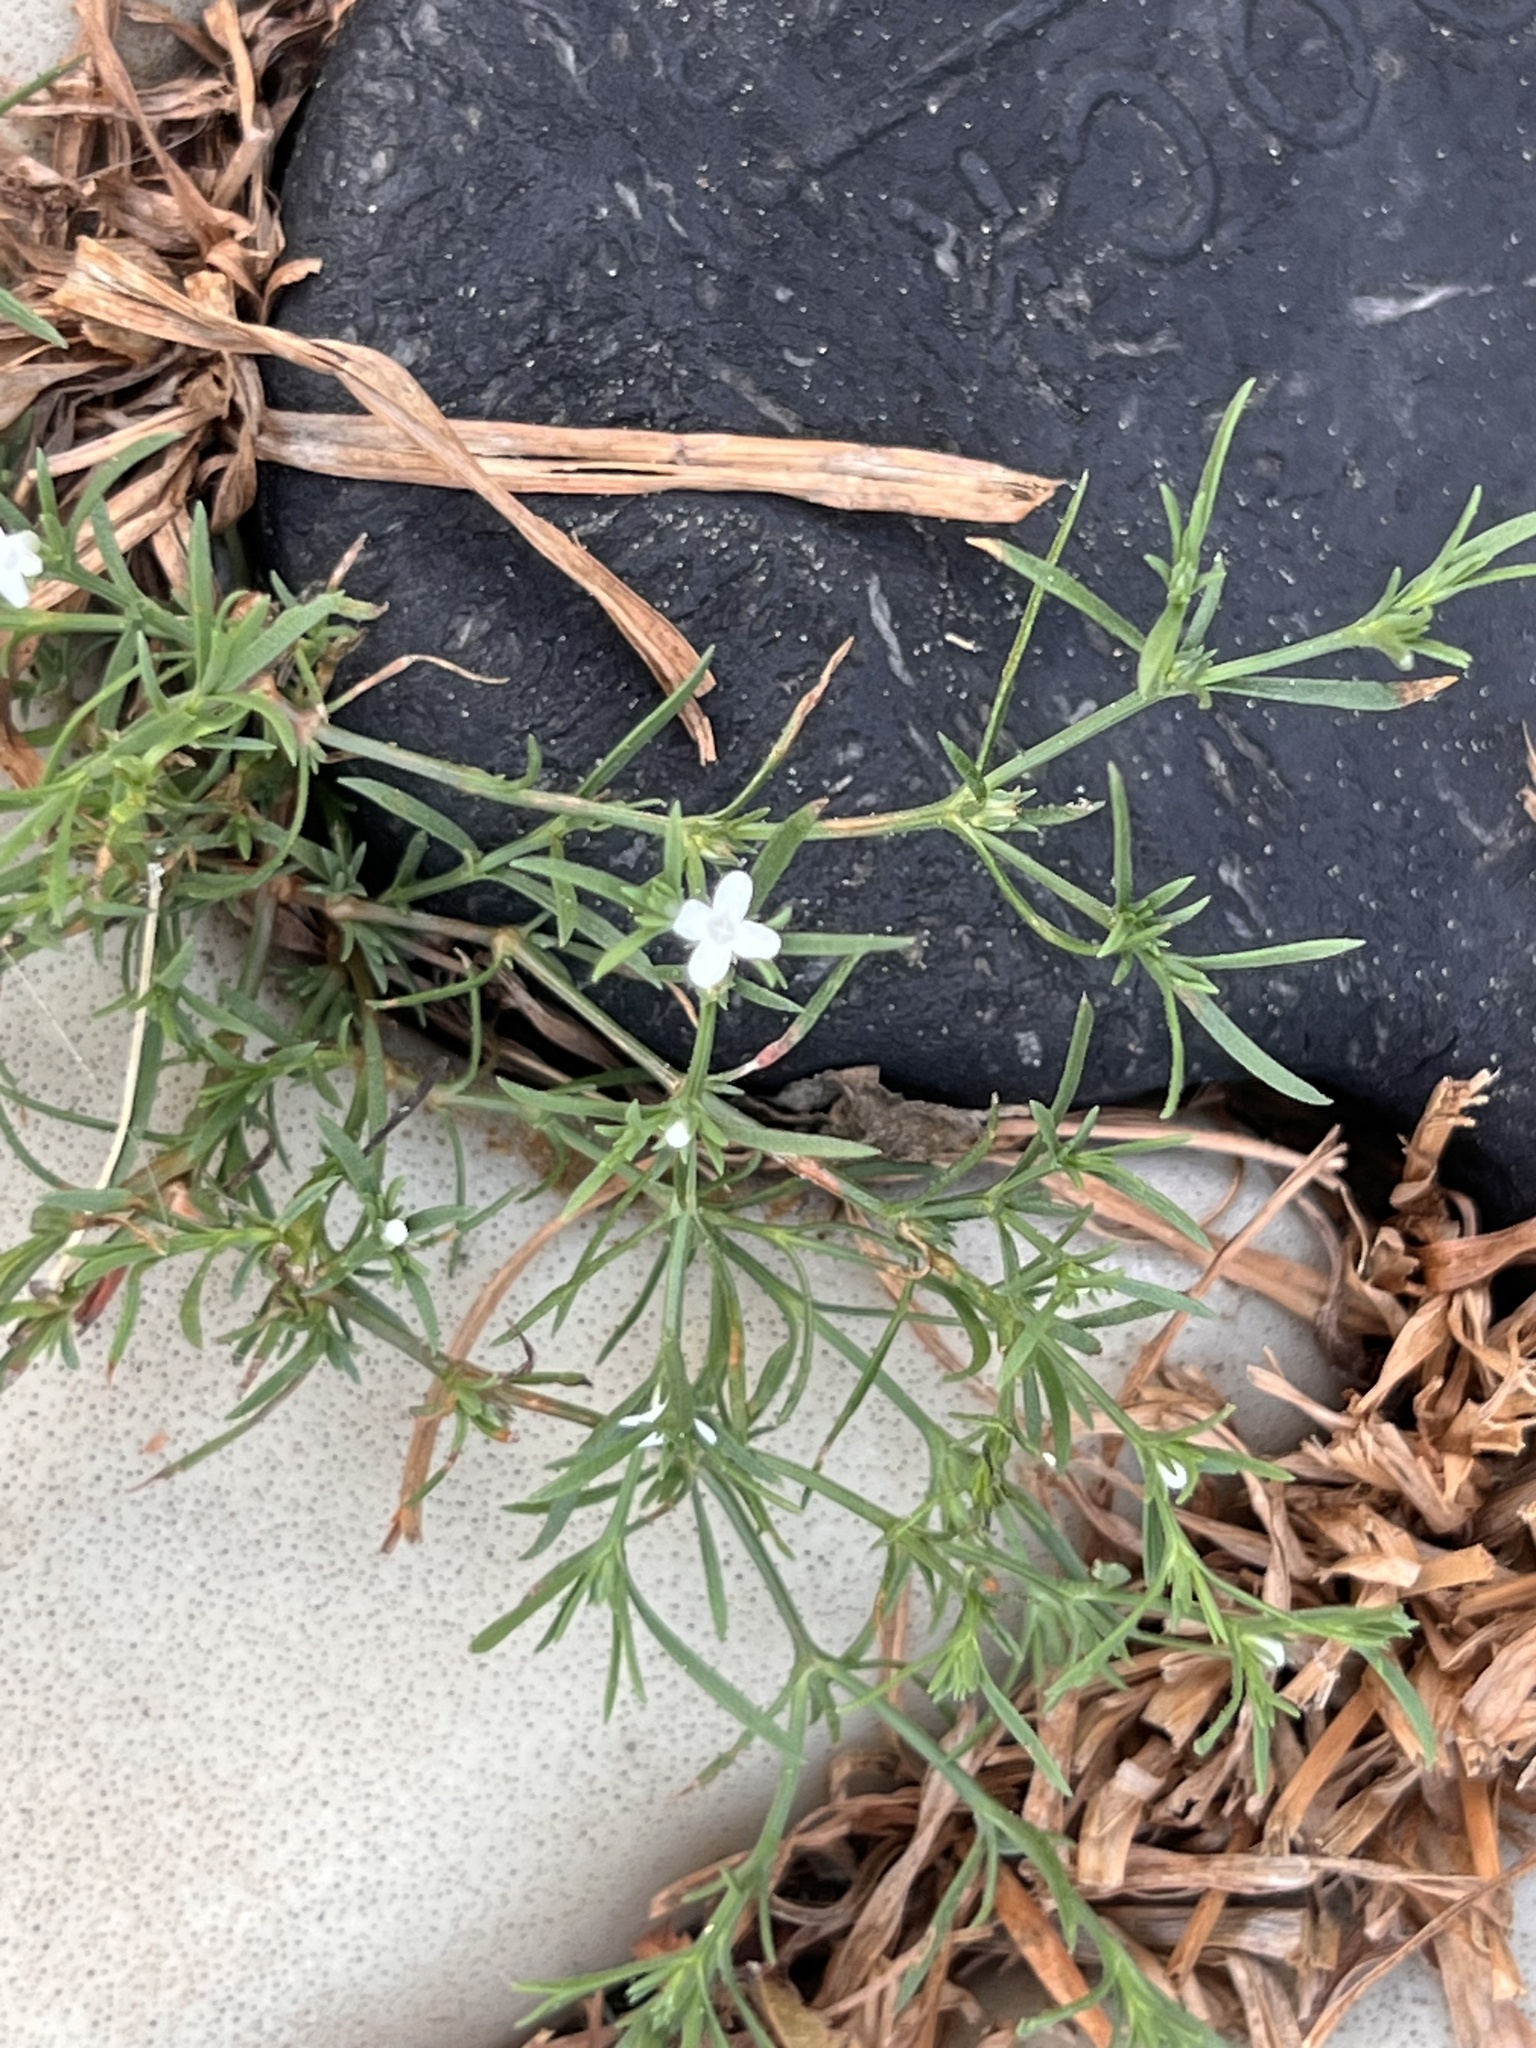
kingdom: Plantae
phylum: Tracheophyta
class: Magnoliopsida
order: Lamiales
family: Tetrachondraceae
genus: Polypremum
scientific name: Polypremum procumbens
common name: Juniper-leaf
